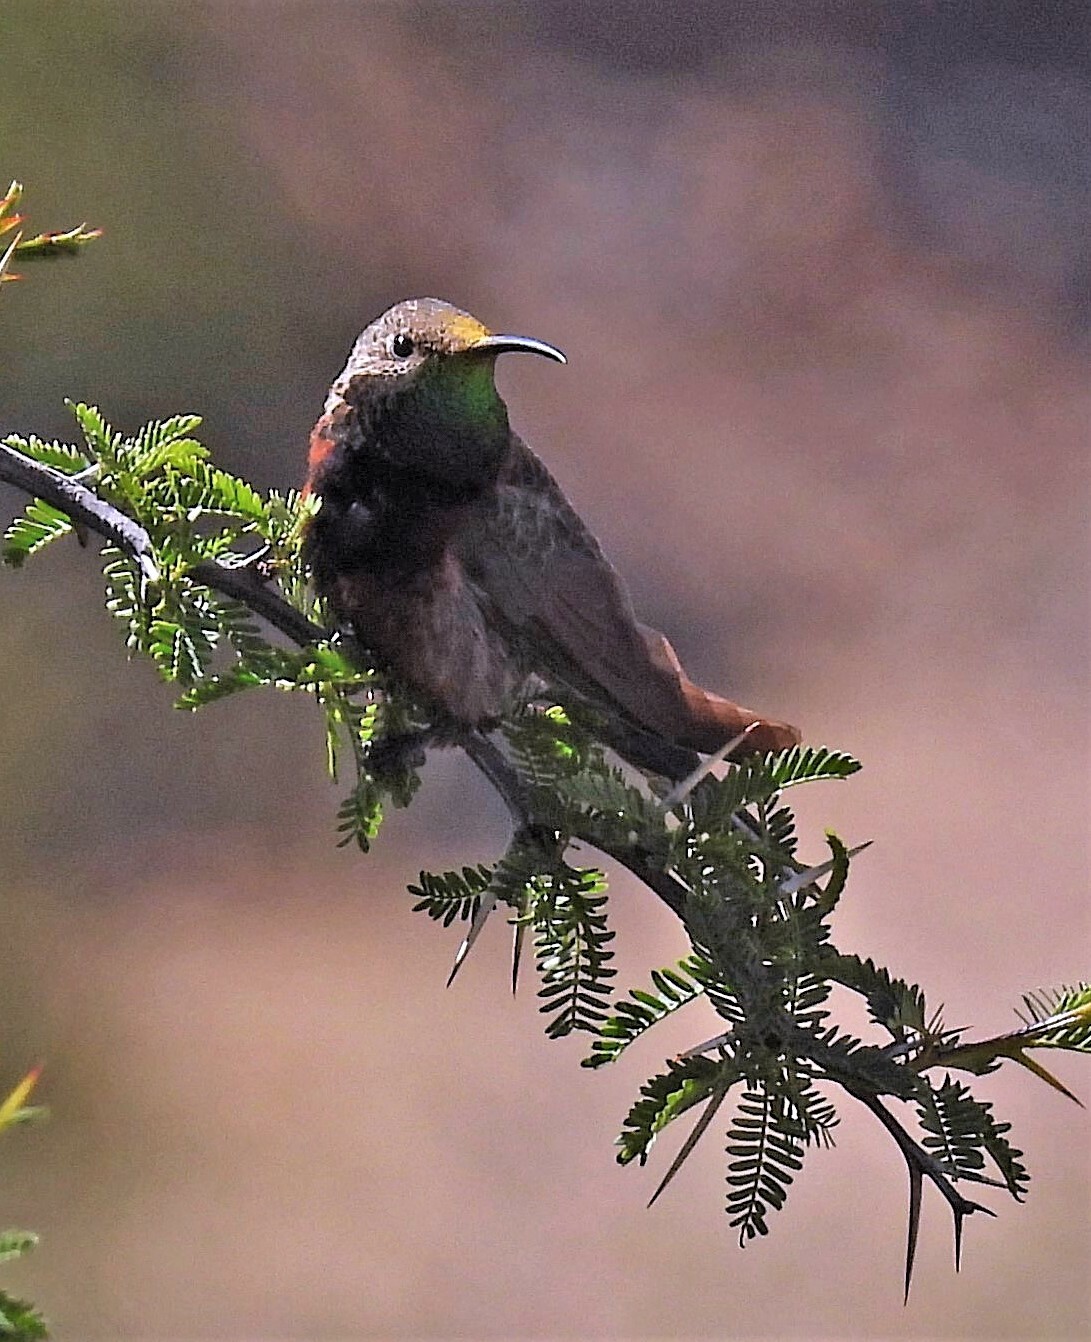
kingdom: Animalia
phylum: Chordata
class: Aves
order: Apodiformes
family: Trochilidae
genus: Oreotrochilus
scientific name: Oreotrochilus adela
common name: Wedge-tailed hillstar
